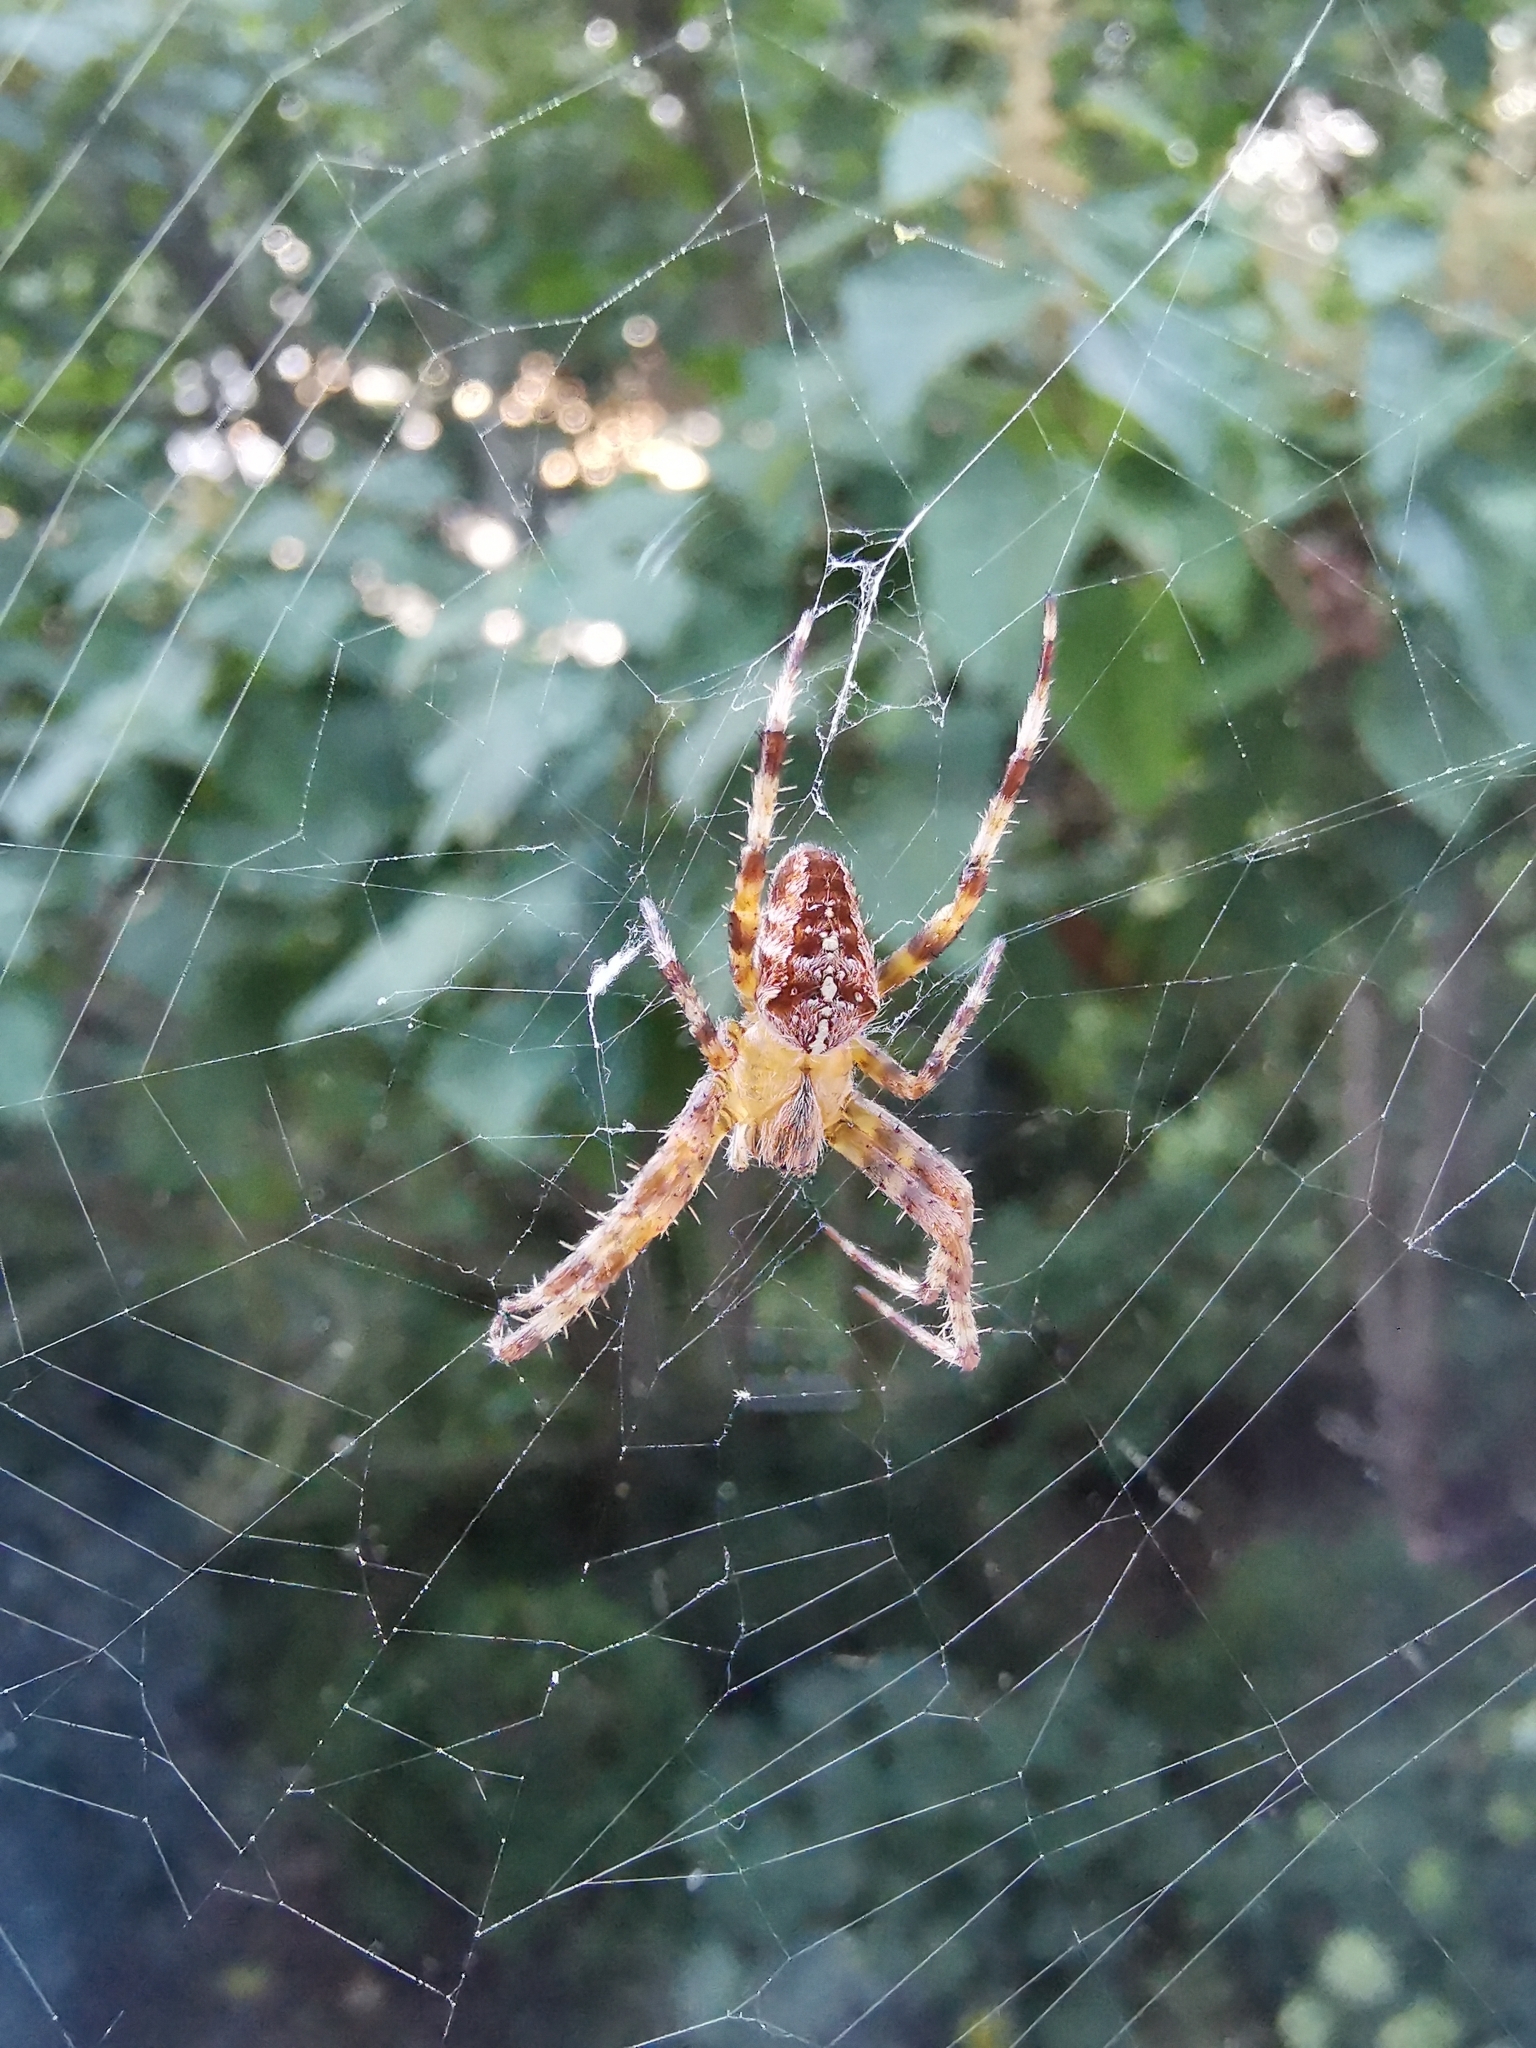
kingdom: Animalia
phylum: Arthropoda
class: Arachnida
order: Araneae
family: Araneidae
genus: Araneus
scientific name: Araneus diadematus
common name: Cross orbweaver
